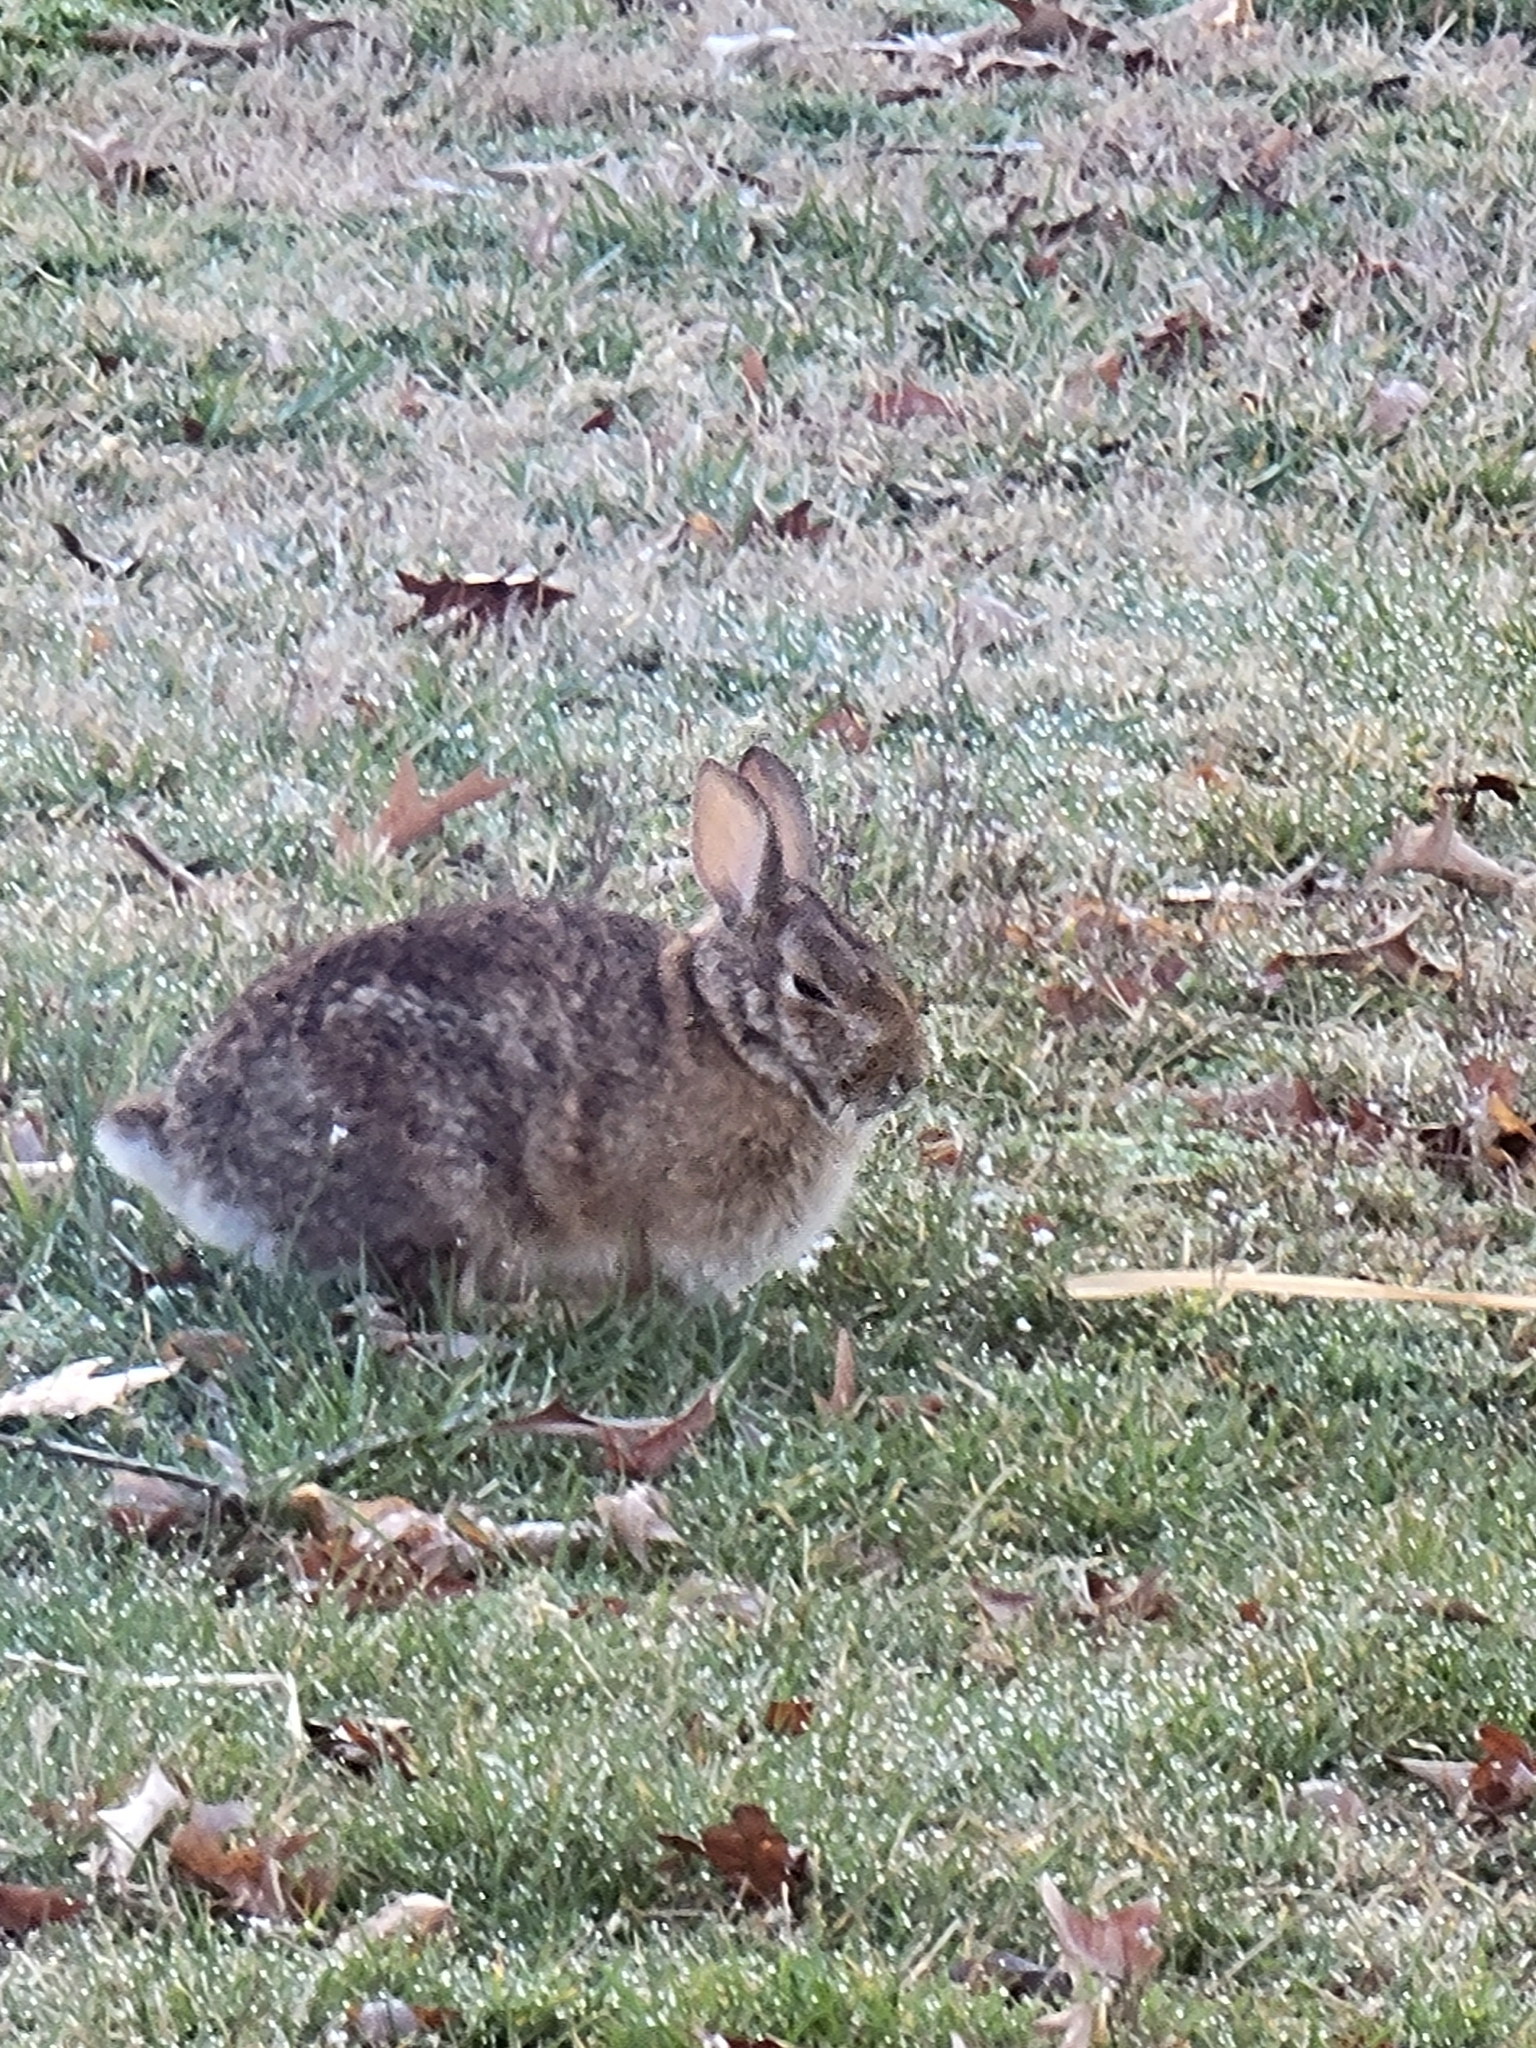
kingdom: Animalia
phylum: Chordata
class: Mammalia
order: Lagomorpha
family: Leporidae
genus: Sylvilagus
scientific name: Sylvilagus floridanus
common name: Eastern cottontail
